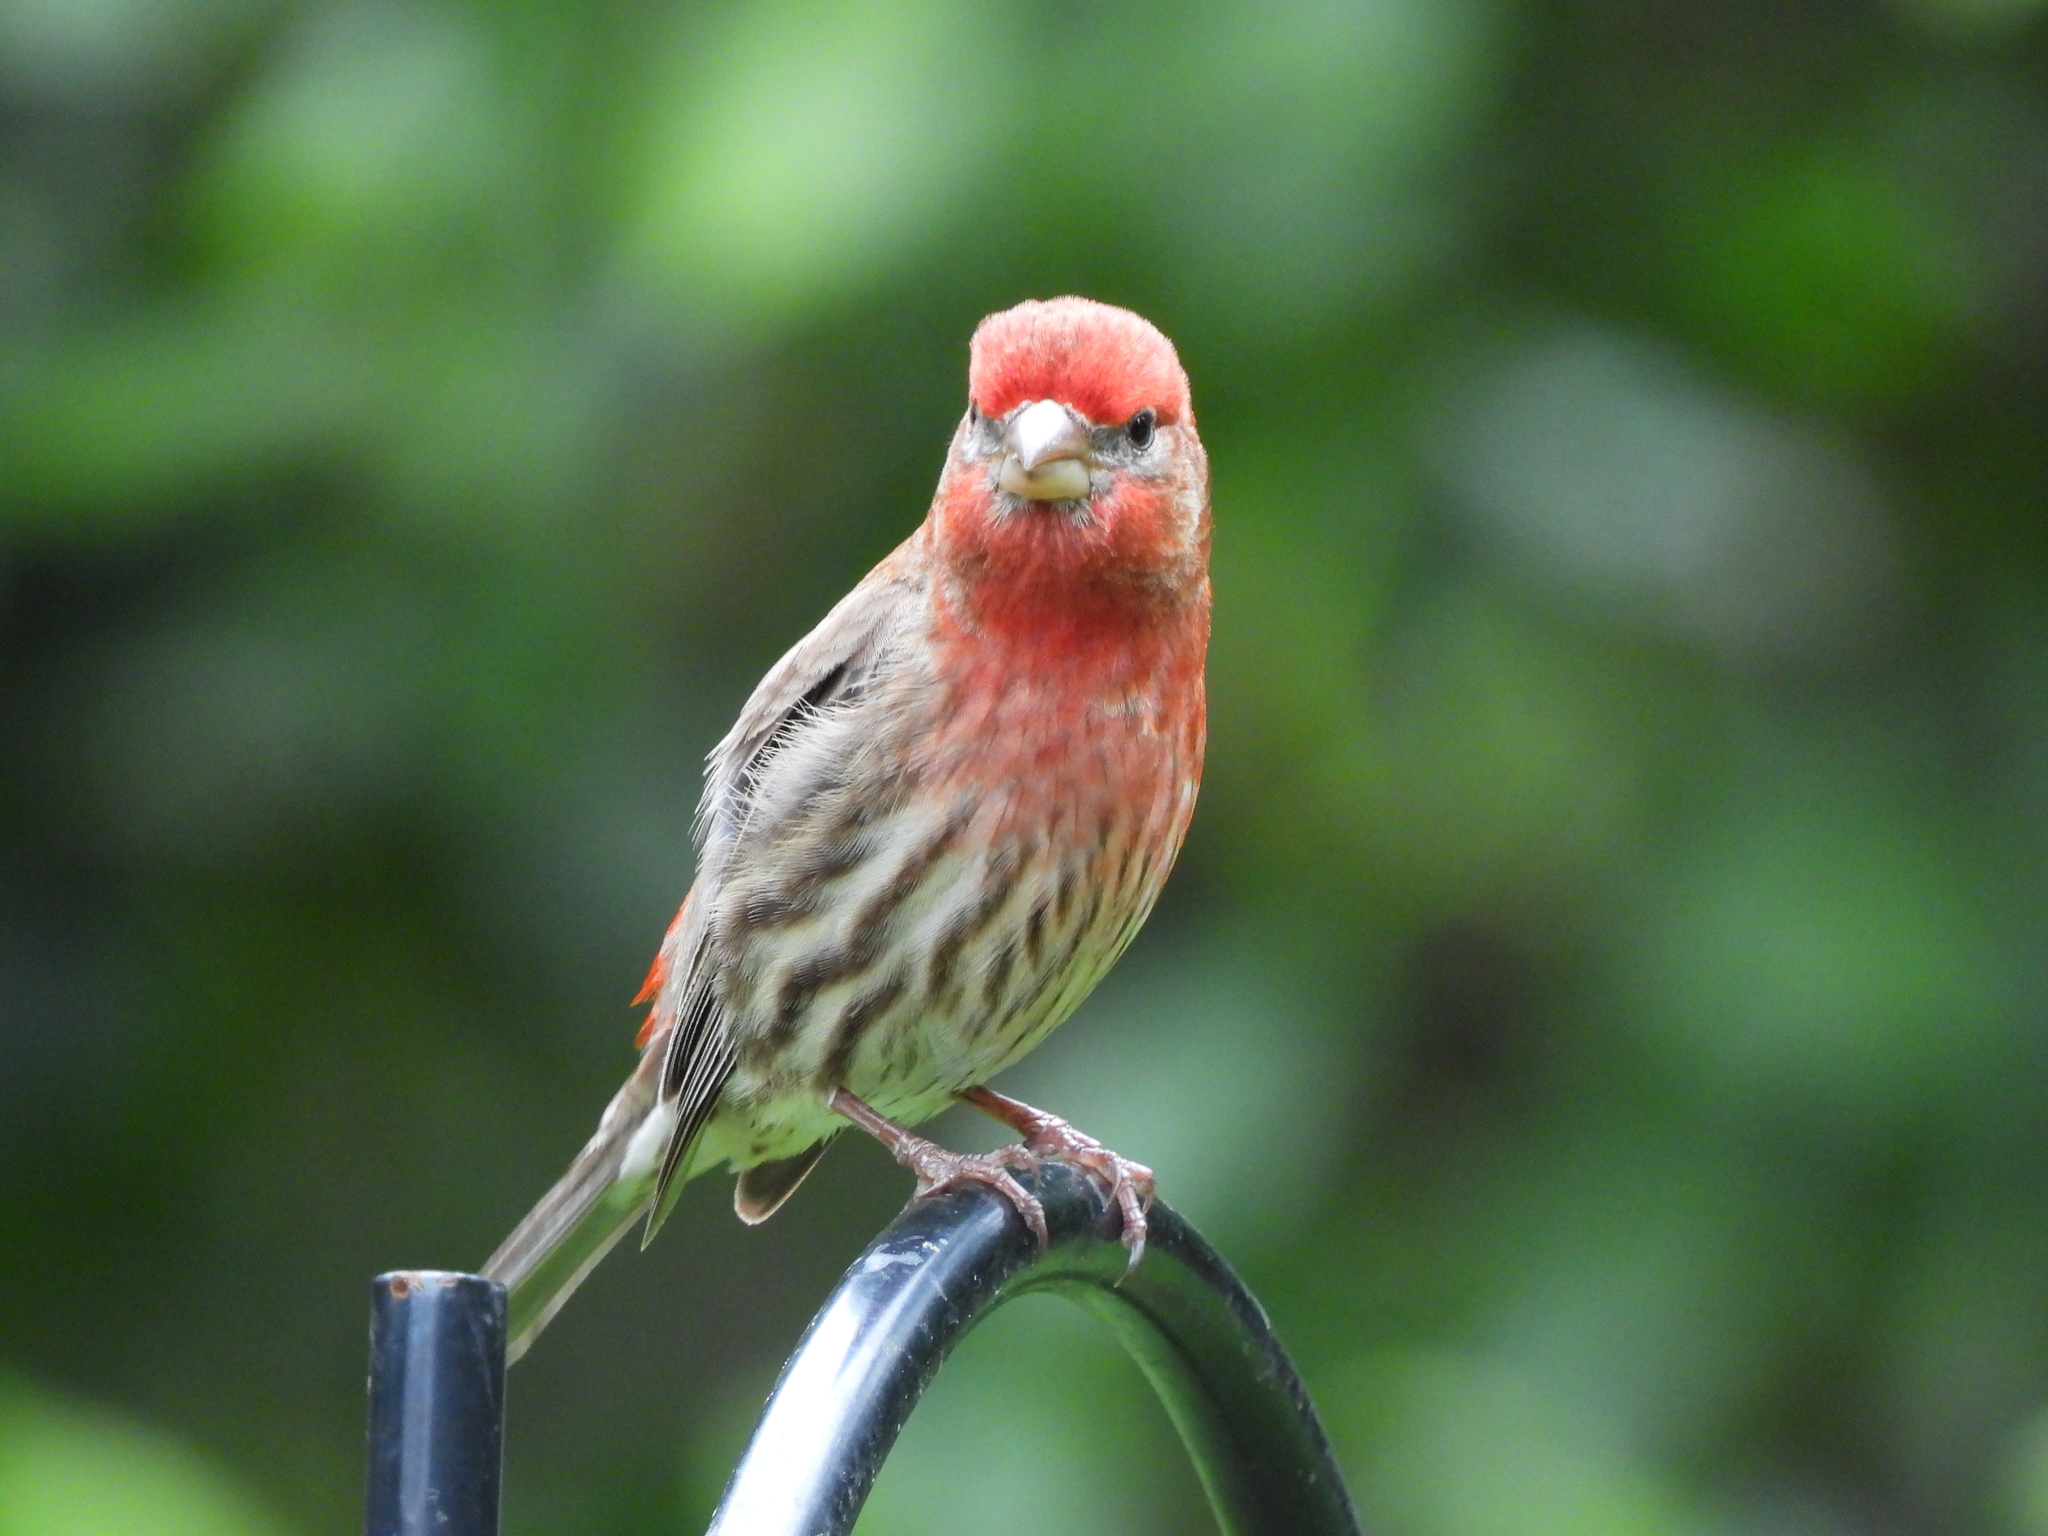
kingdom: Animalia
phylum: Chordata
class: Aves
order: Passeriformes
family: Fringillidae
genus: Haemorhous
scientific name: Haemorhous mexicanus
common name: House finch
